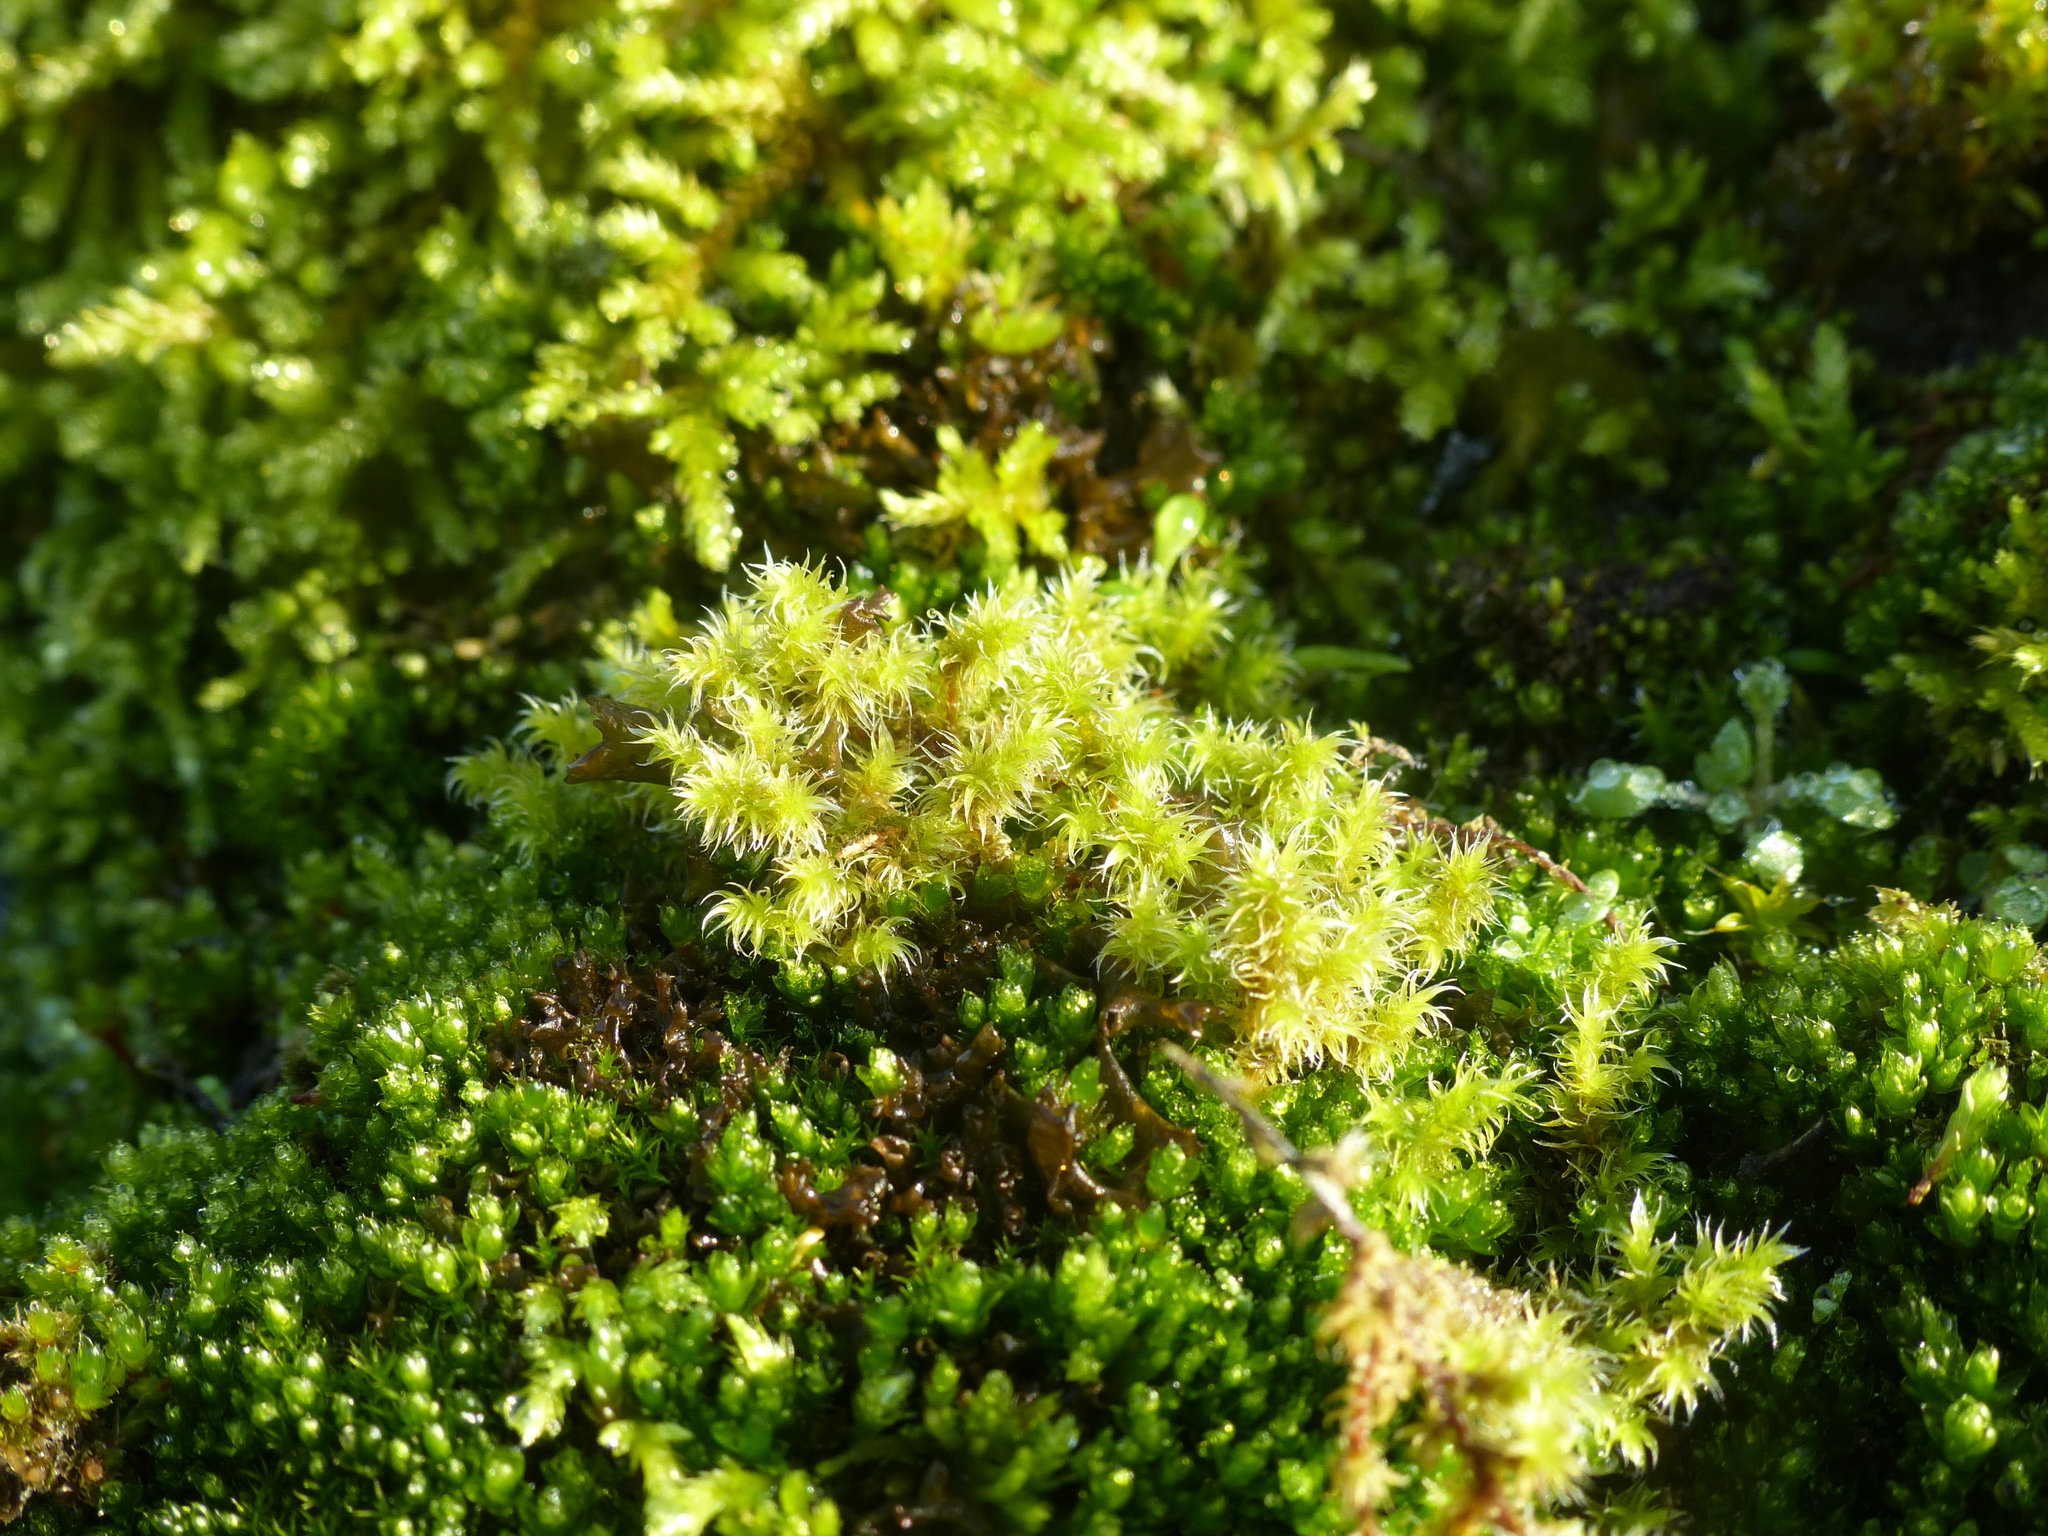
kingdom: Plantae
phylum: Bryophyta
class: Bryopsida
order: Grimmiales
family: Grimmiaceae
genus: Niphotrichum
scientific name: Niphotrichum elongatum
